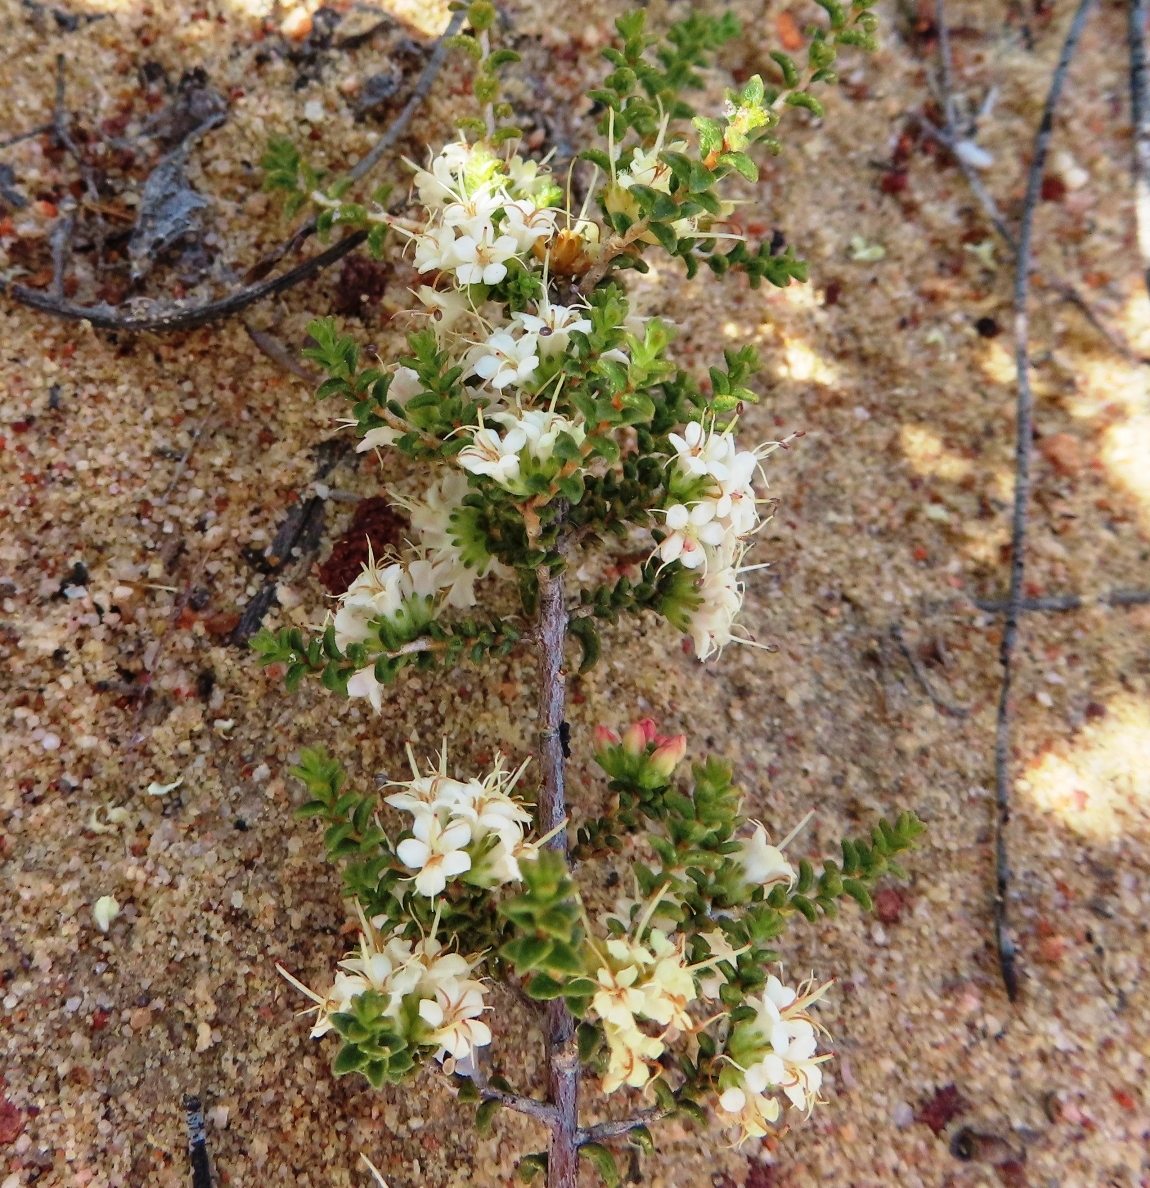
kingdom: Plantae
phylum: Tracheophyta
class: Magnoliopsida
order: Sapindales
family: Rutaceae
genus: Macrostylis
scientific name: Macrostylis crassifolia
